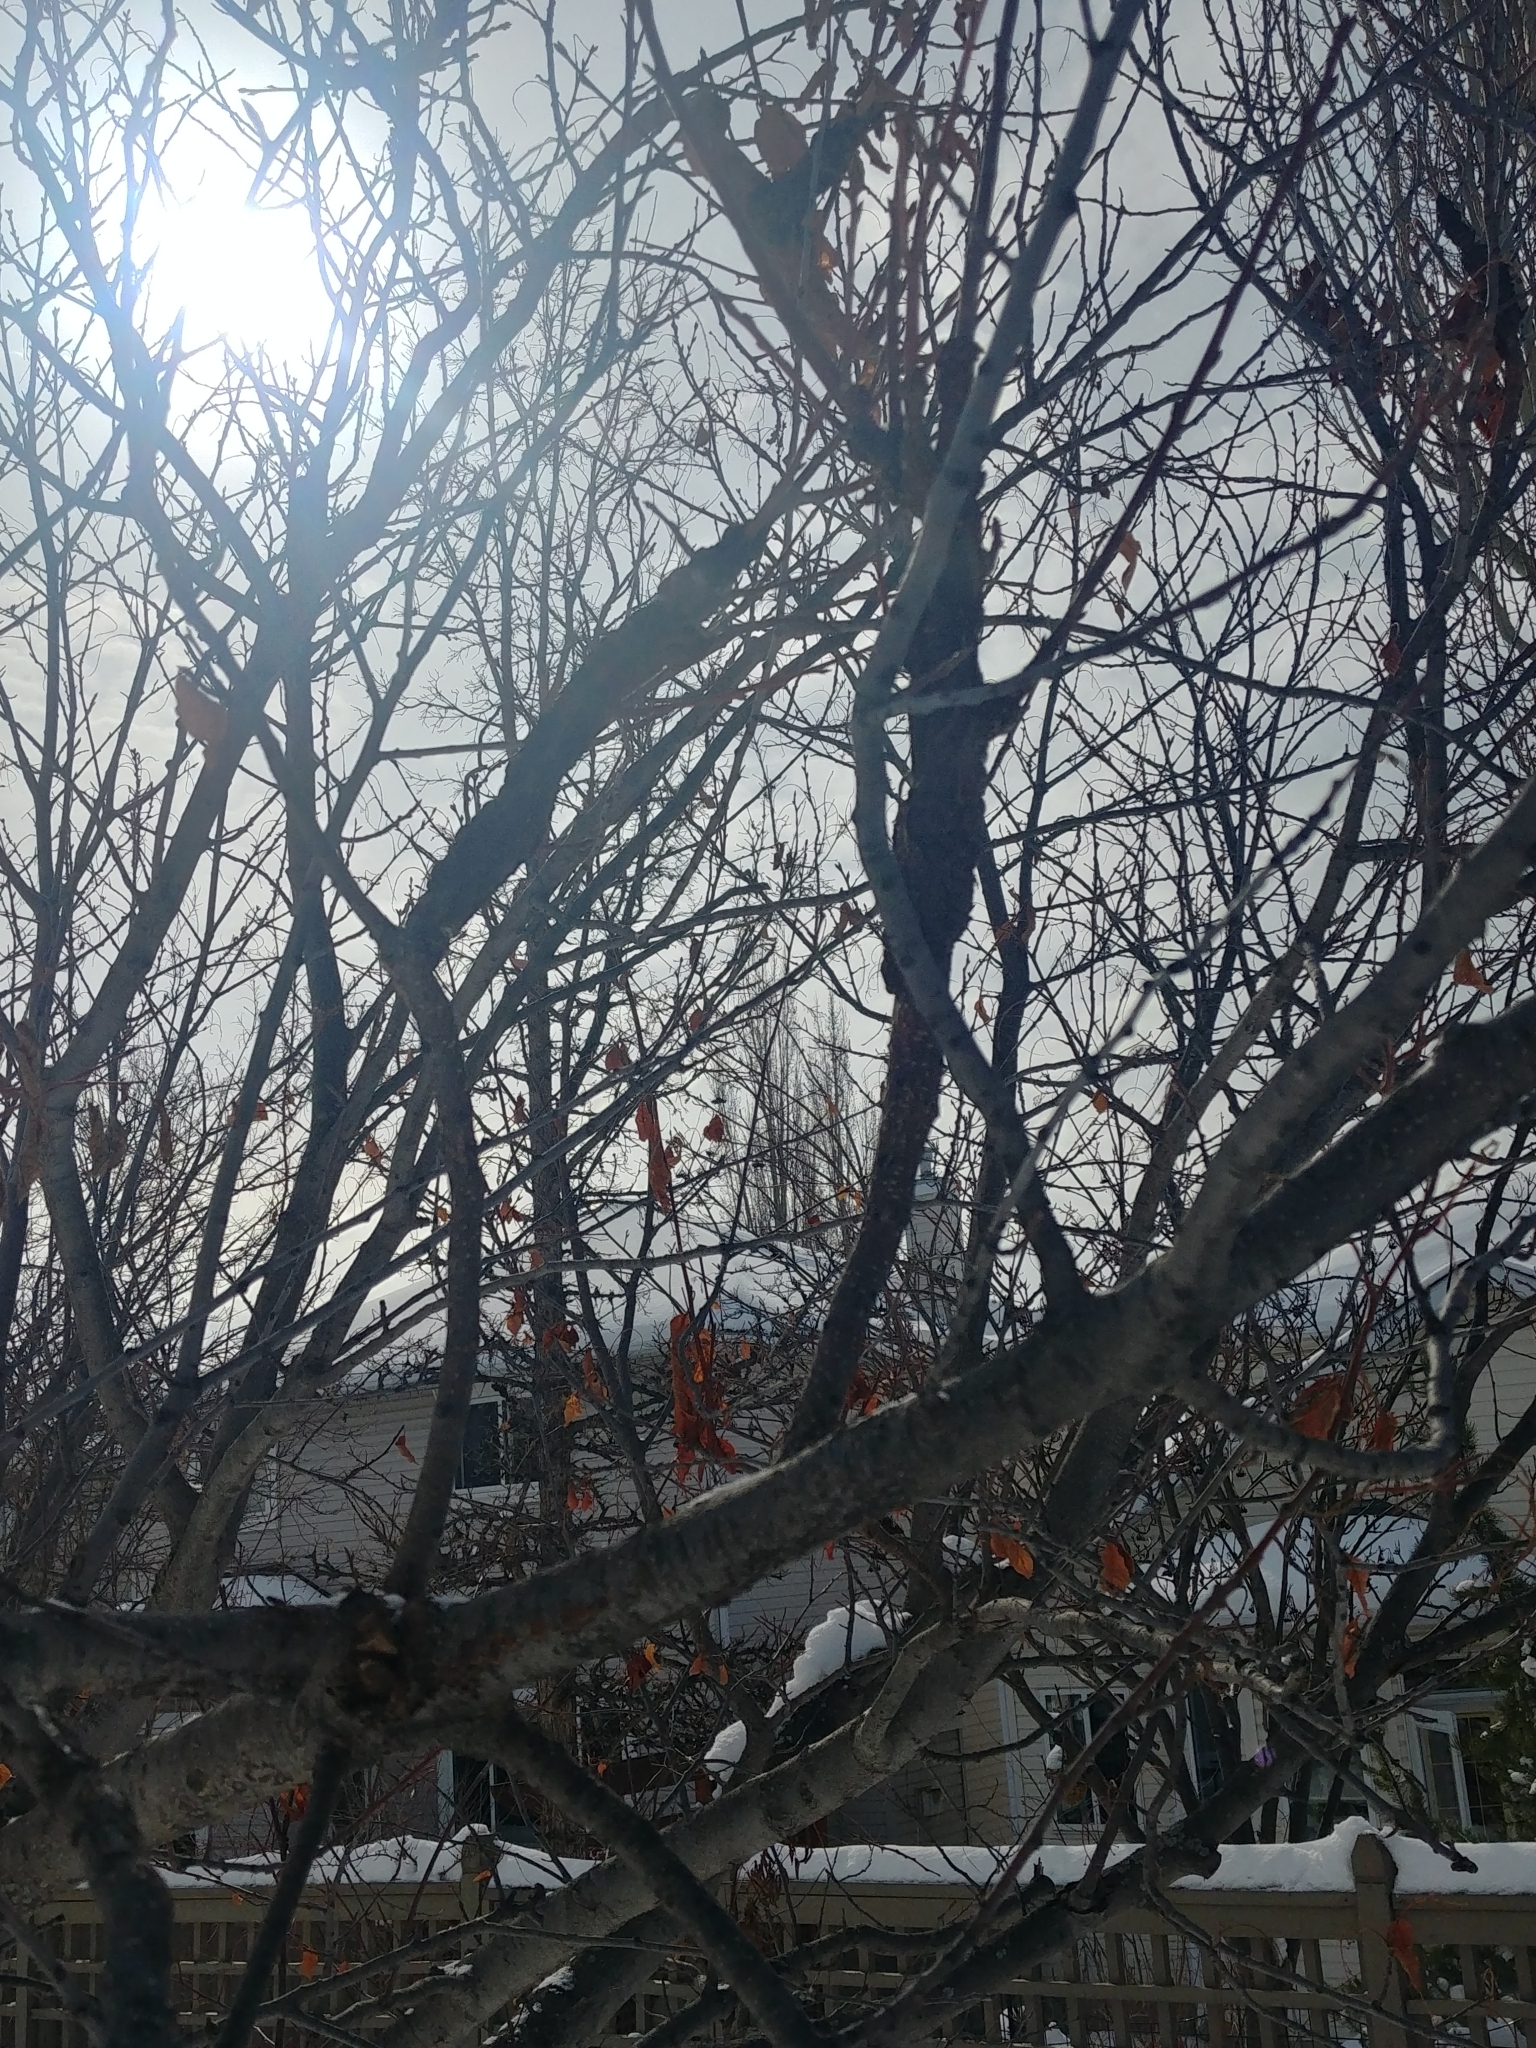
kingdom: Fungi
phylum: Ascomycota
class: Dothideomycetes
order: Venturiales
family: Venturiaceae
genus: Apiosporina
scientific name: Apiosporina morbosa
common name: Black knot
